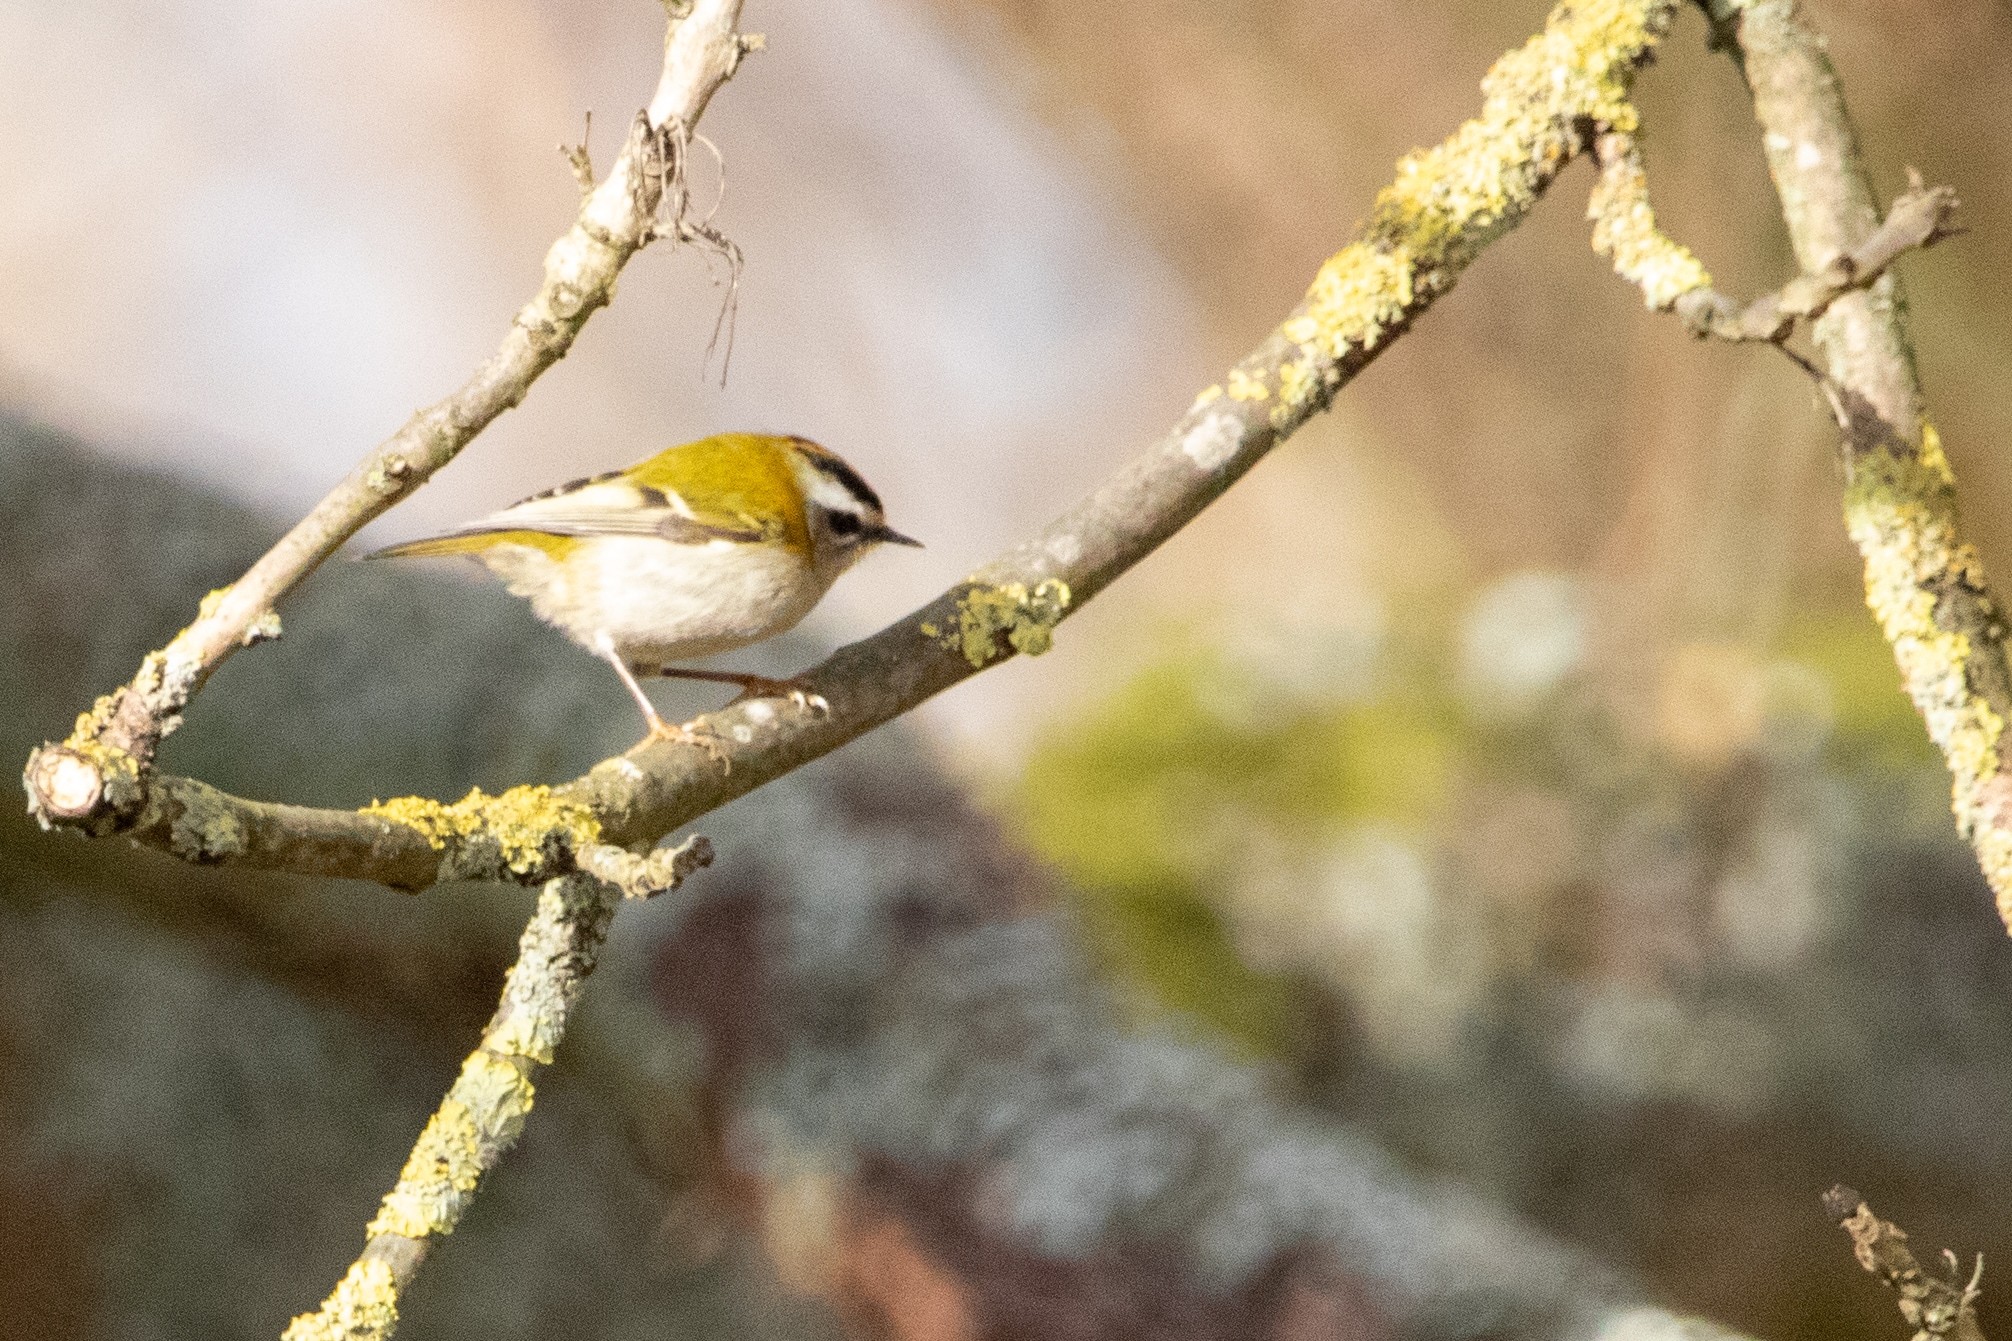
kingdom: Animalia
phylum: Chordata
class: Aves
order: Passeriformes
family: Regulidae
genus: Regulus
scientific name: Regulus ignicapilla
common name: Firecrest
